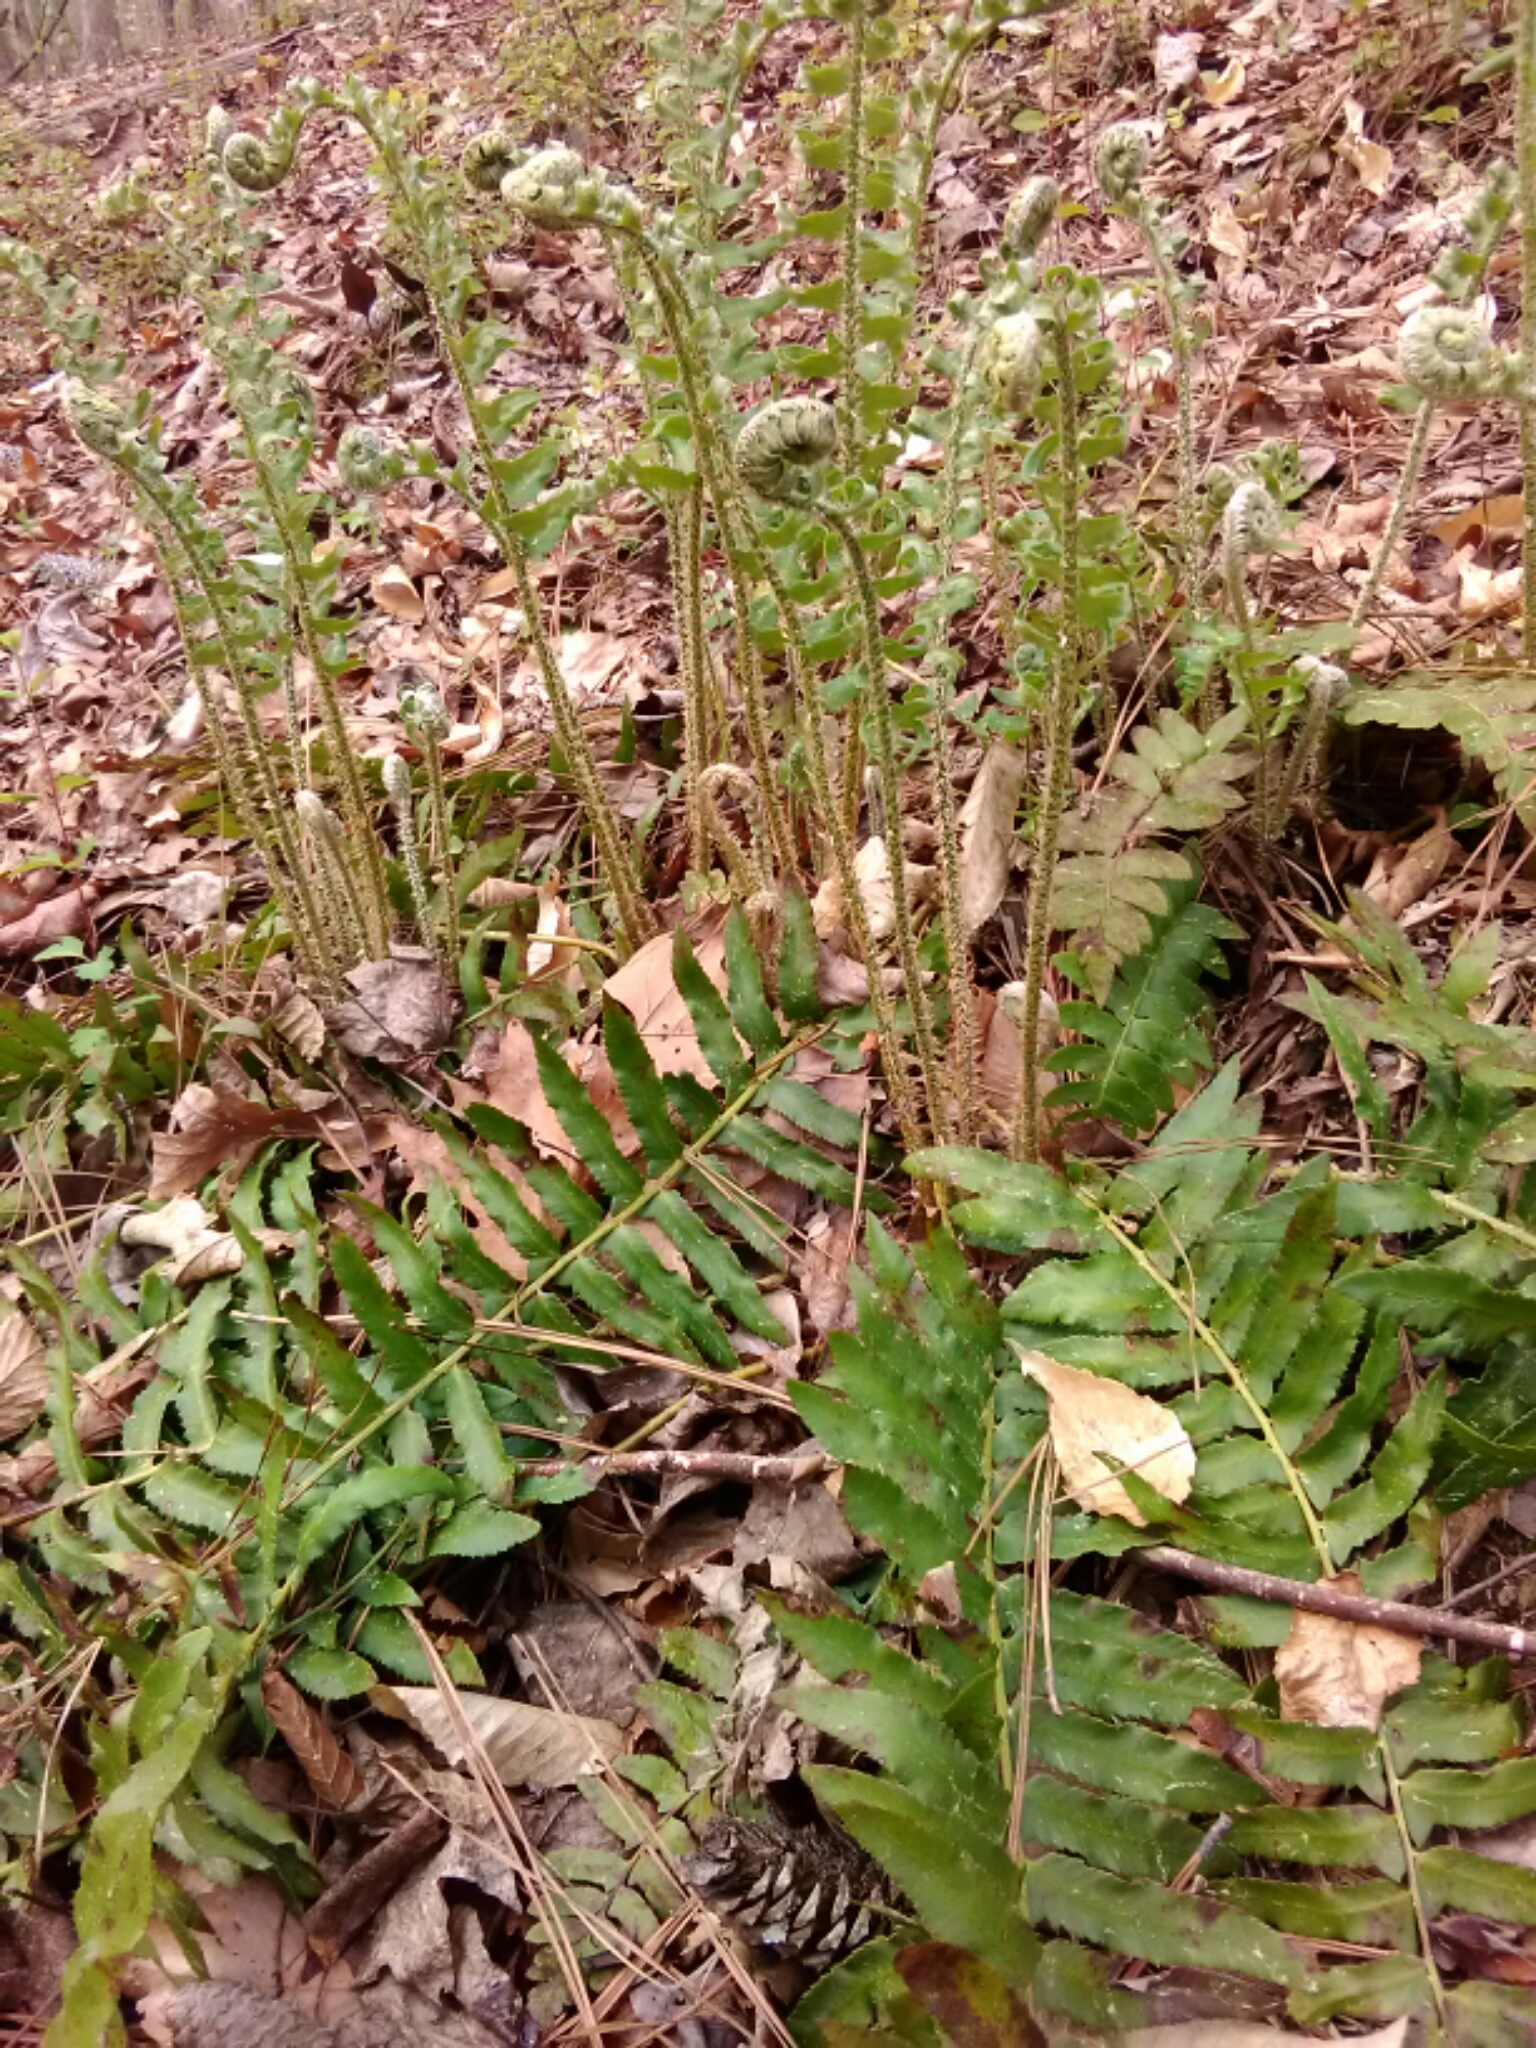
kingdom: Plantae
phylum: Tracheophyta
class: Polypodiopsida
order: Polypodiales
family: Dryopteridaceae
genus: Polystichum
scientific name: Polystichum acrostichoides
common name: Christmas fern
